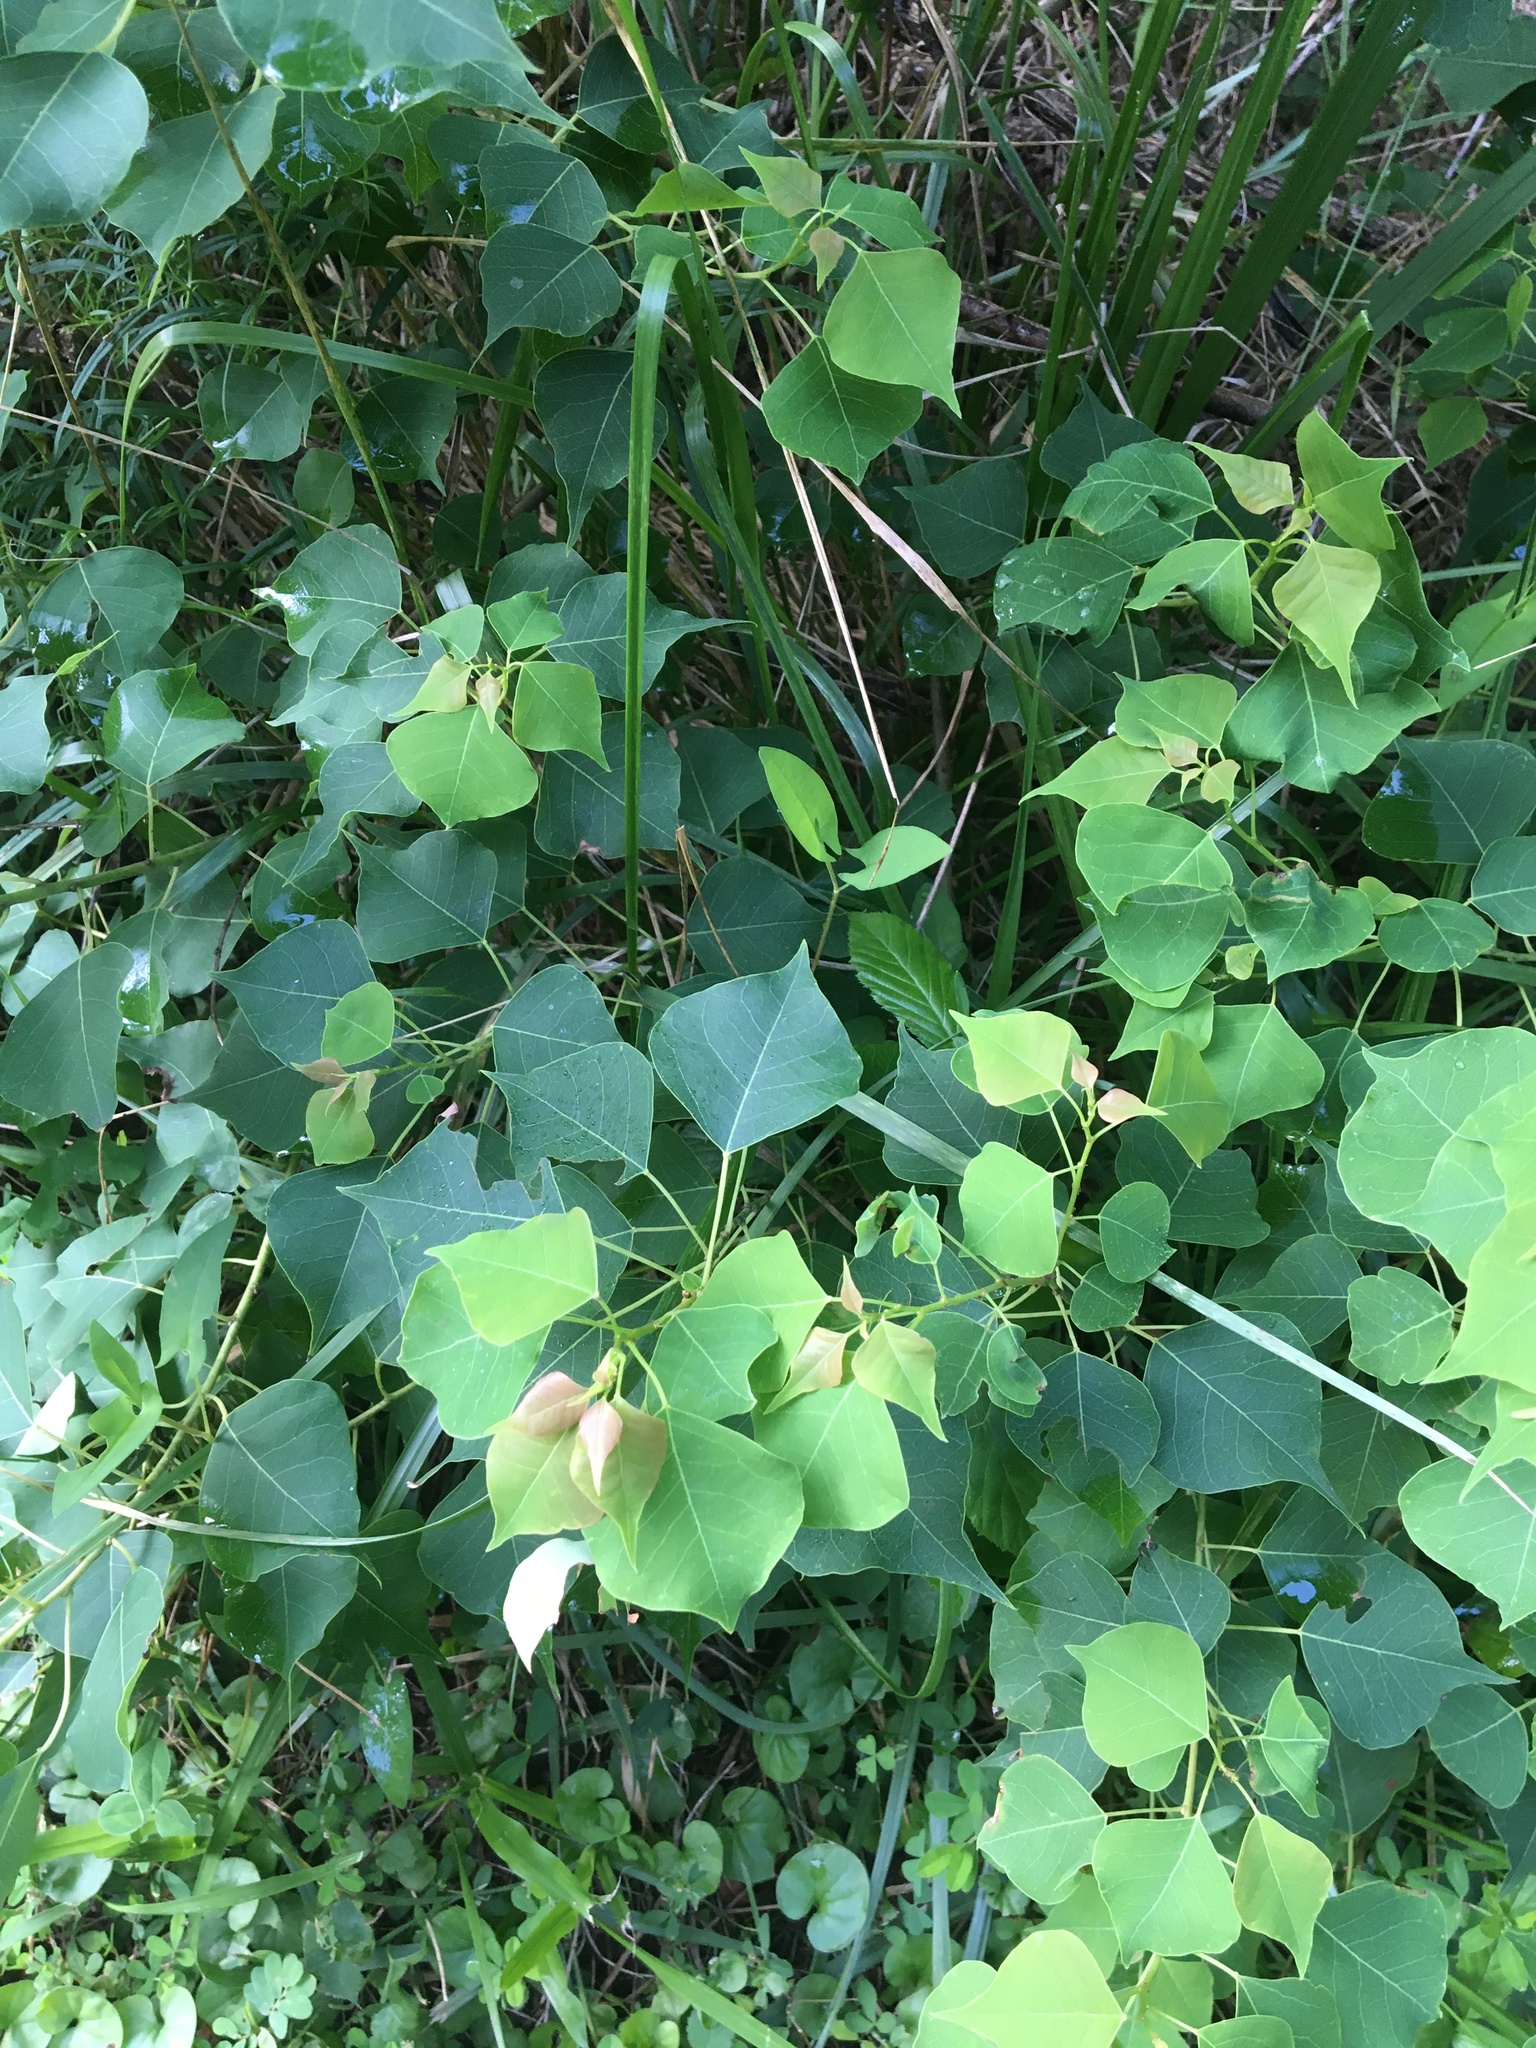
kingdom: Plantae
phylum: Tracheophyta
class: Magnoliopsida
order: Malpighiales
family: Euphorbiaceae
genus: Triadica
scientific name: Triadica sebifera
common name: Chinese tallow
